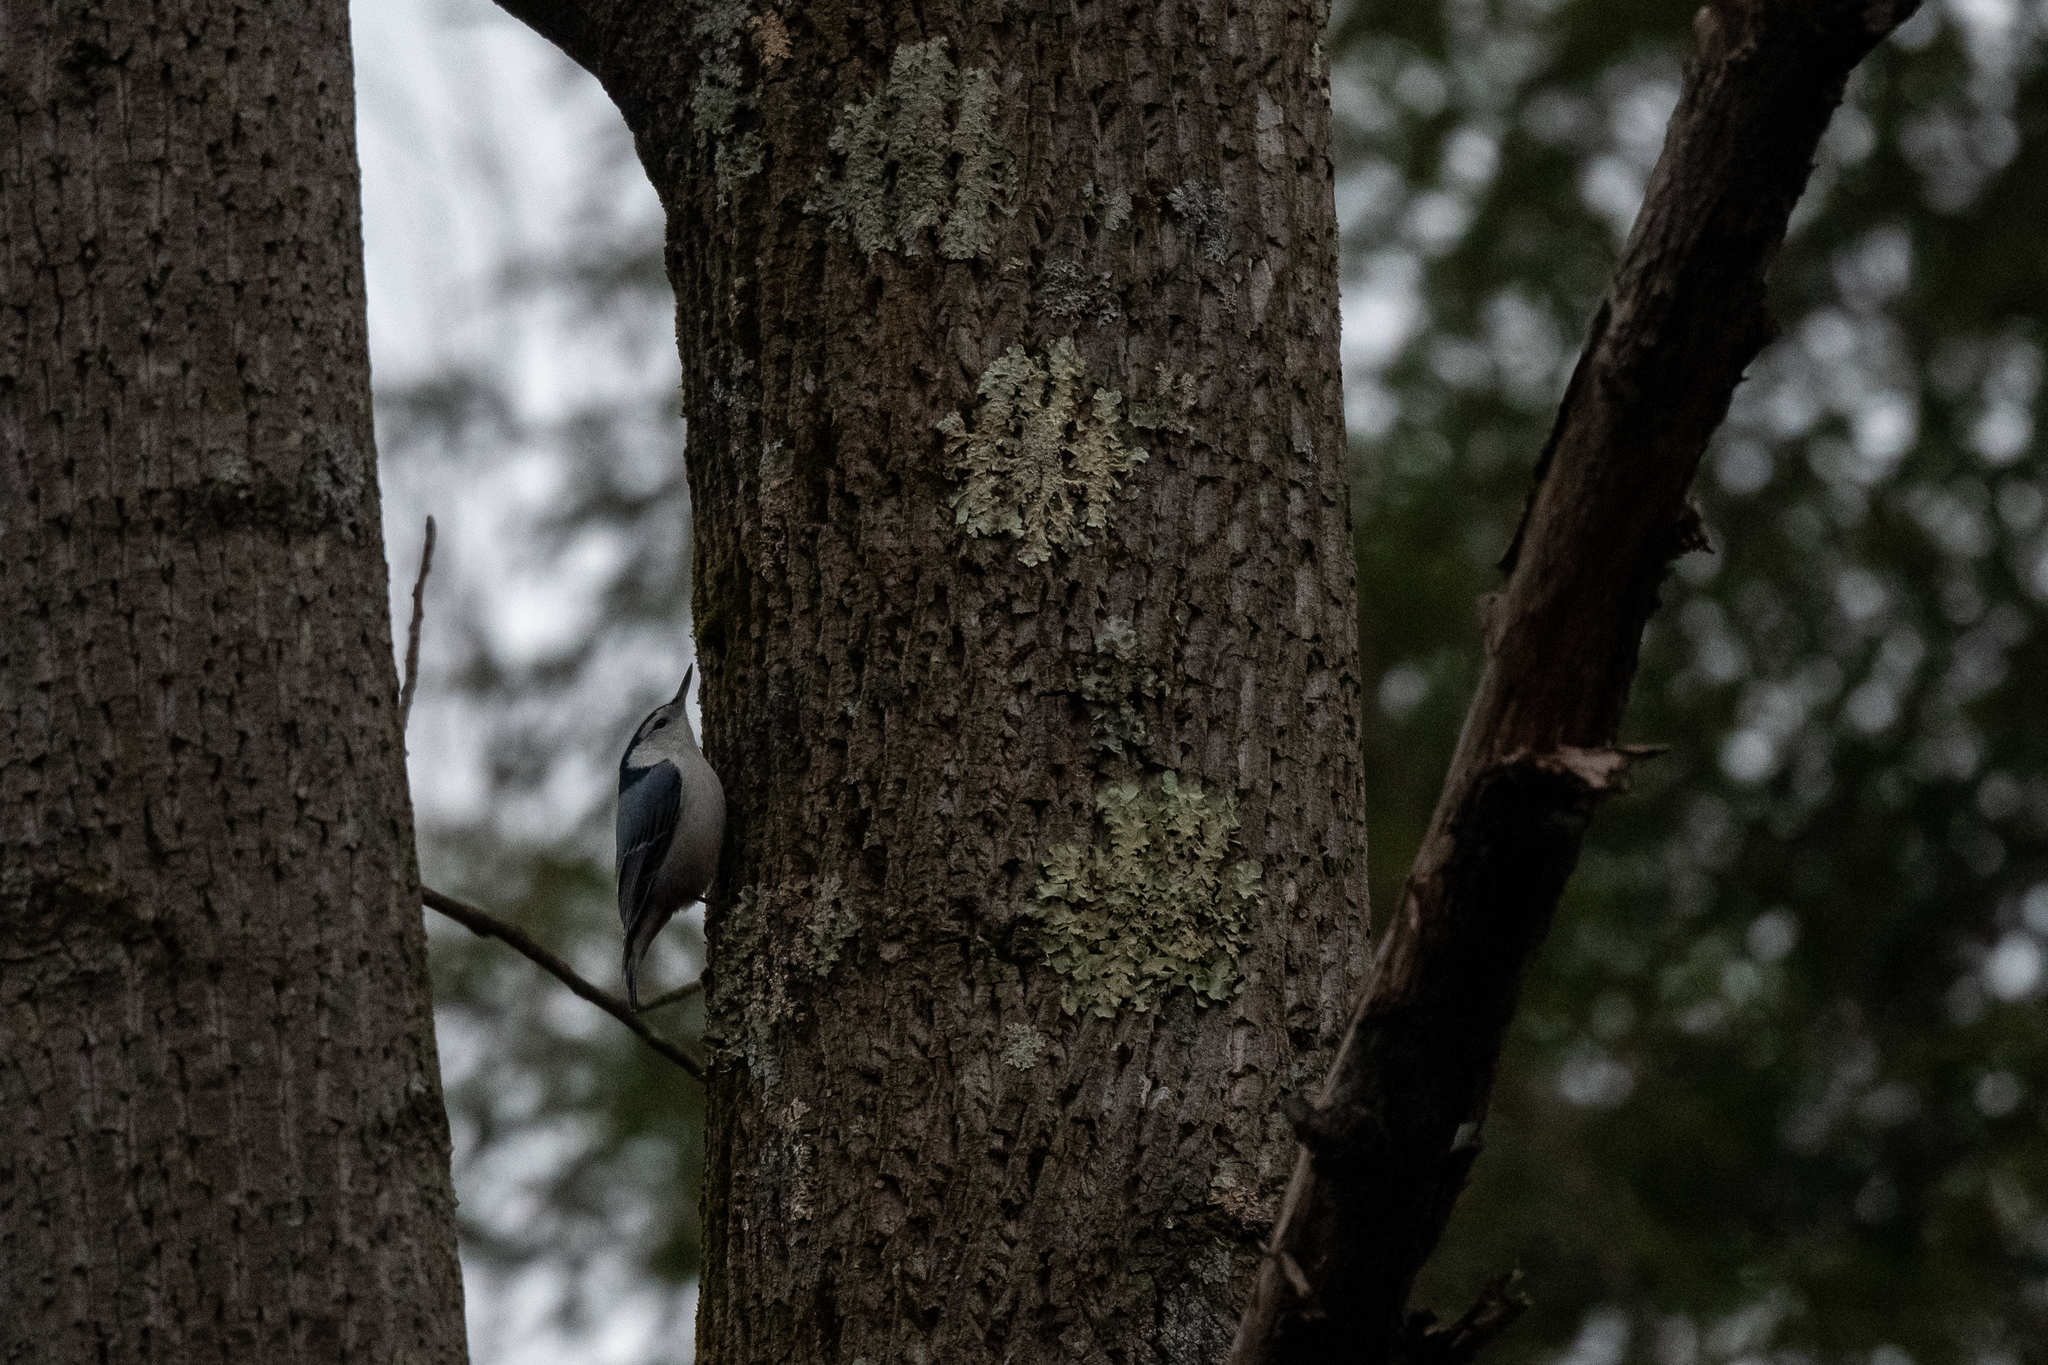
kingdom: Animalia
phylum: Chordata
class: Aves
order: Passeriformes
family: Sittidae
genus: Sitta
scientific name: Sitta carolinensis
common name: White-breasted nuthatch
